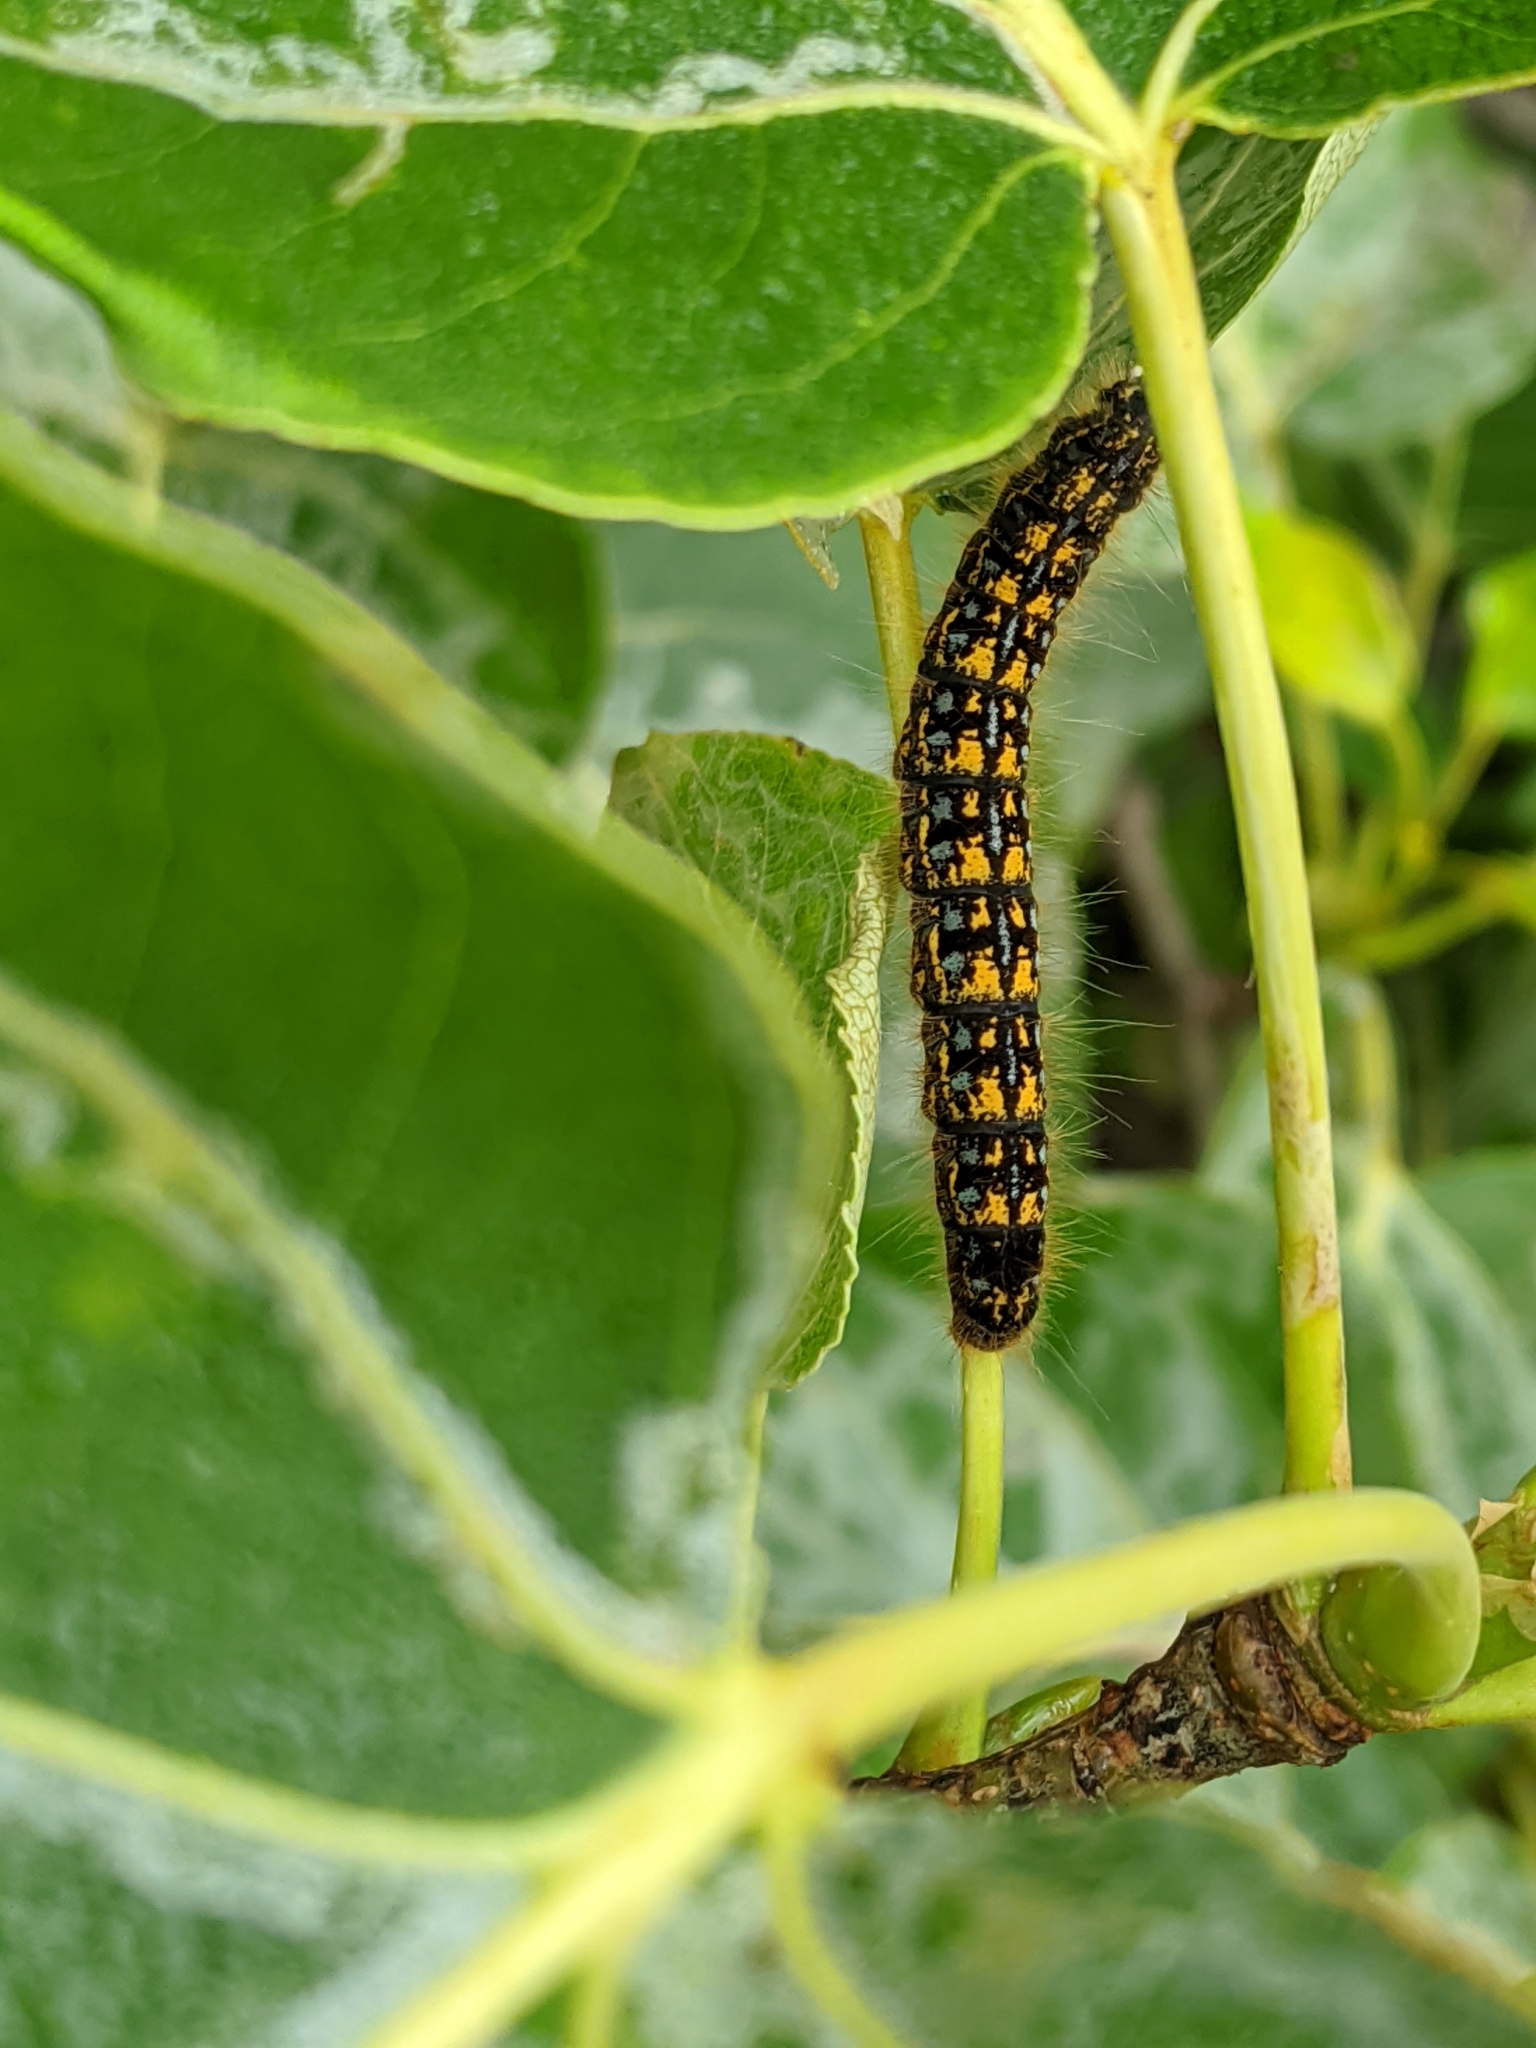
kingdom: Animalia
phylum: Arthropoda
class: Insecta
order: Lepidoptera
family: Lasiocampidae
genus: Malacosoma
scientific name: Malacosoma californica
